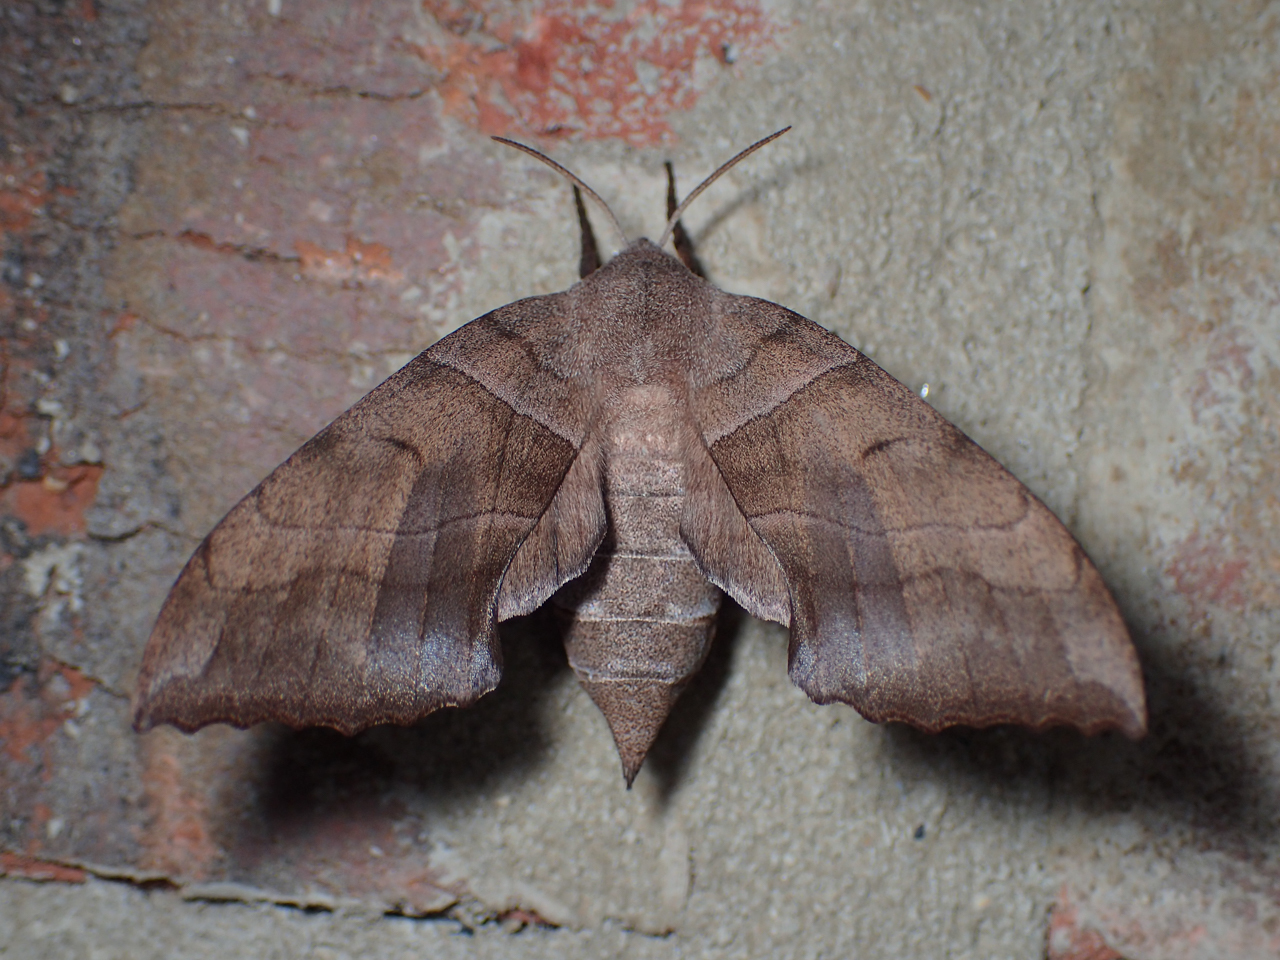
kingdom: Animalia
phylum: Arthropoda
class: Insecta
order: Lepidoptera
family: Sphingidae
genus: Amorpha
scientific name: Amorpha juglandis
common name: Walnut sphinx
